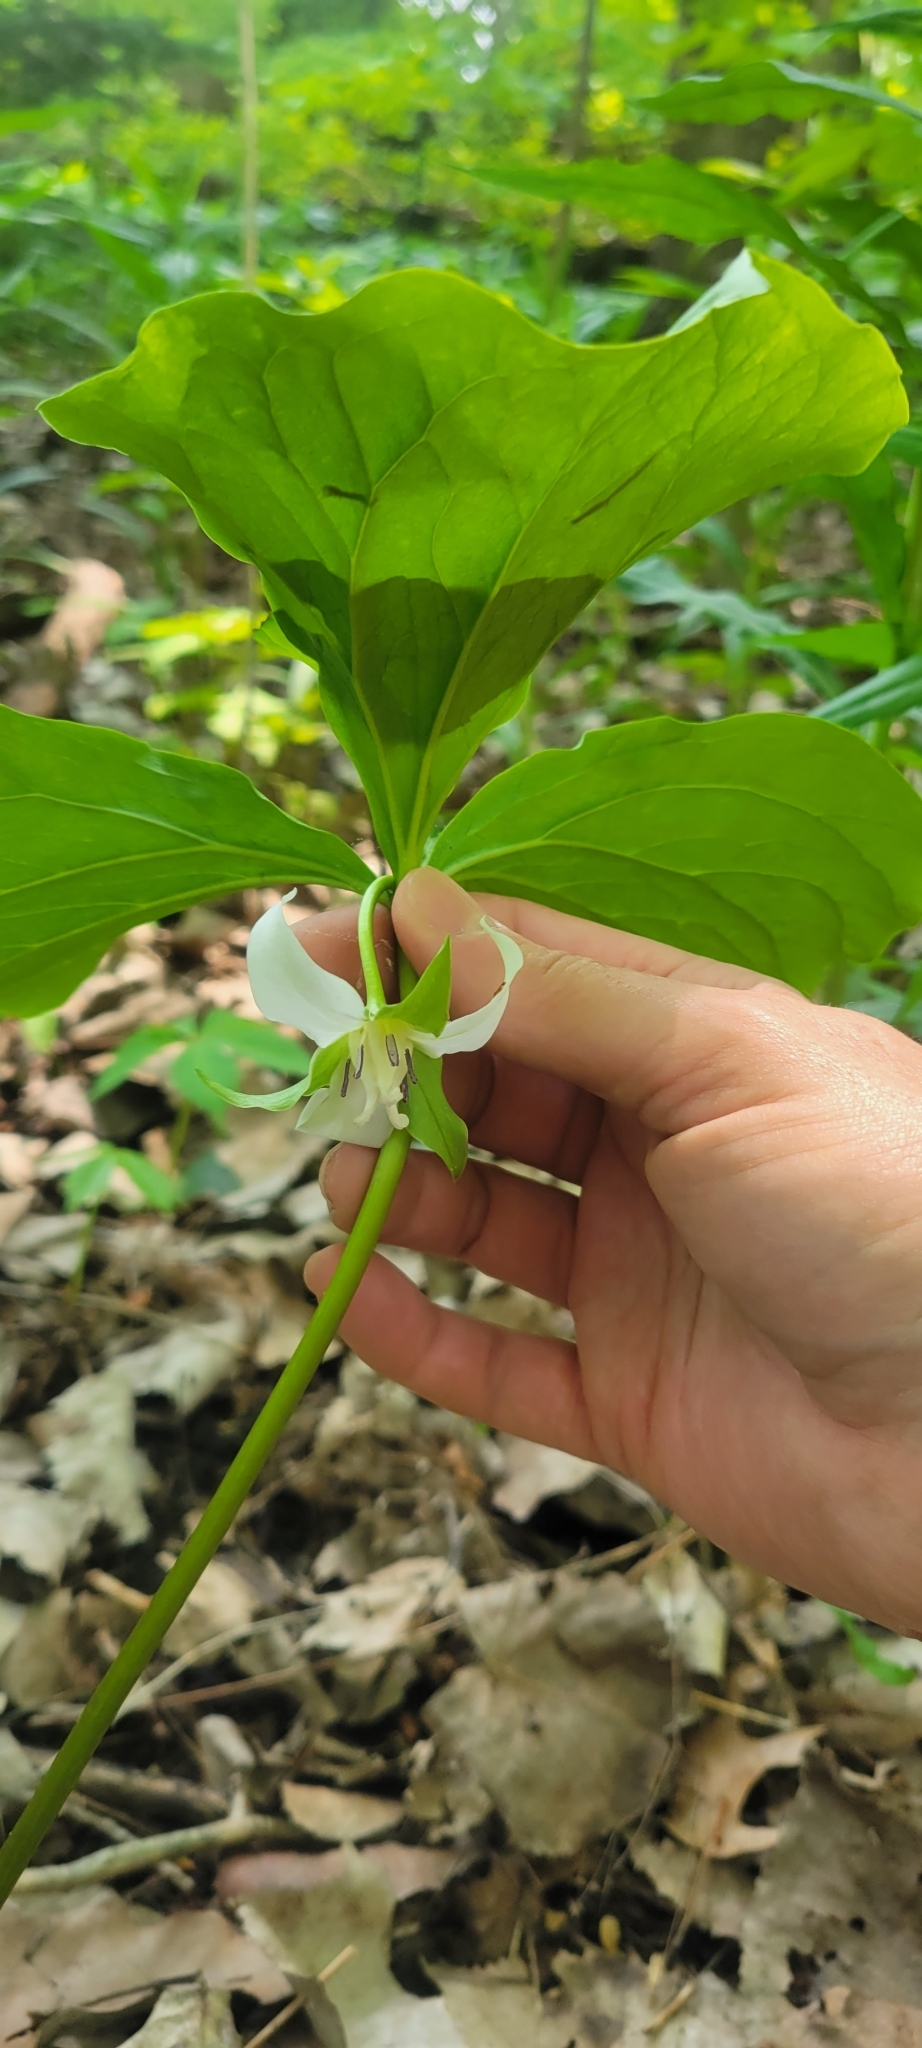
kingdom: Plantae
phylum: Tracheophyta
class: Liliopsida
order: Liliales
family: Melanthiaceae
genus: Trillium
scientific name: Trillium cernuum
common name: Nodding trillium
